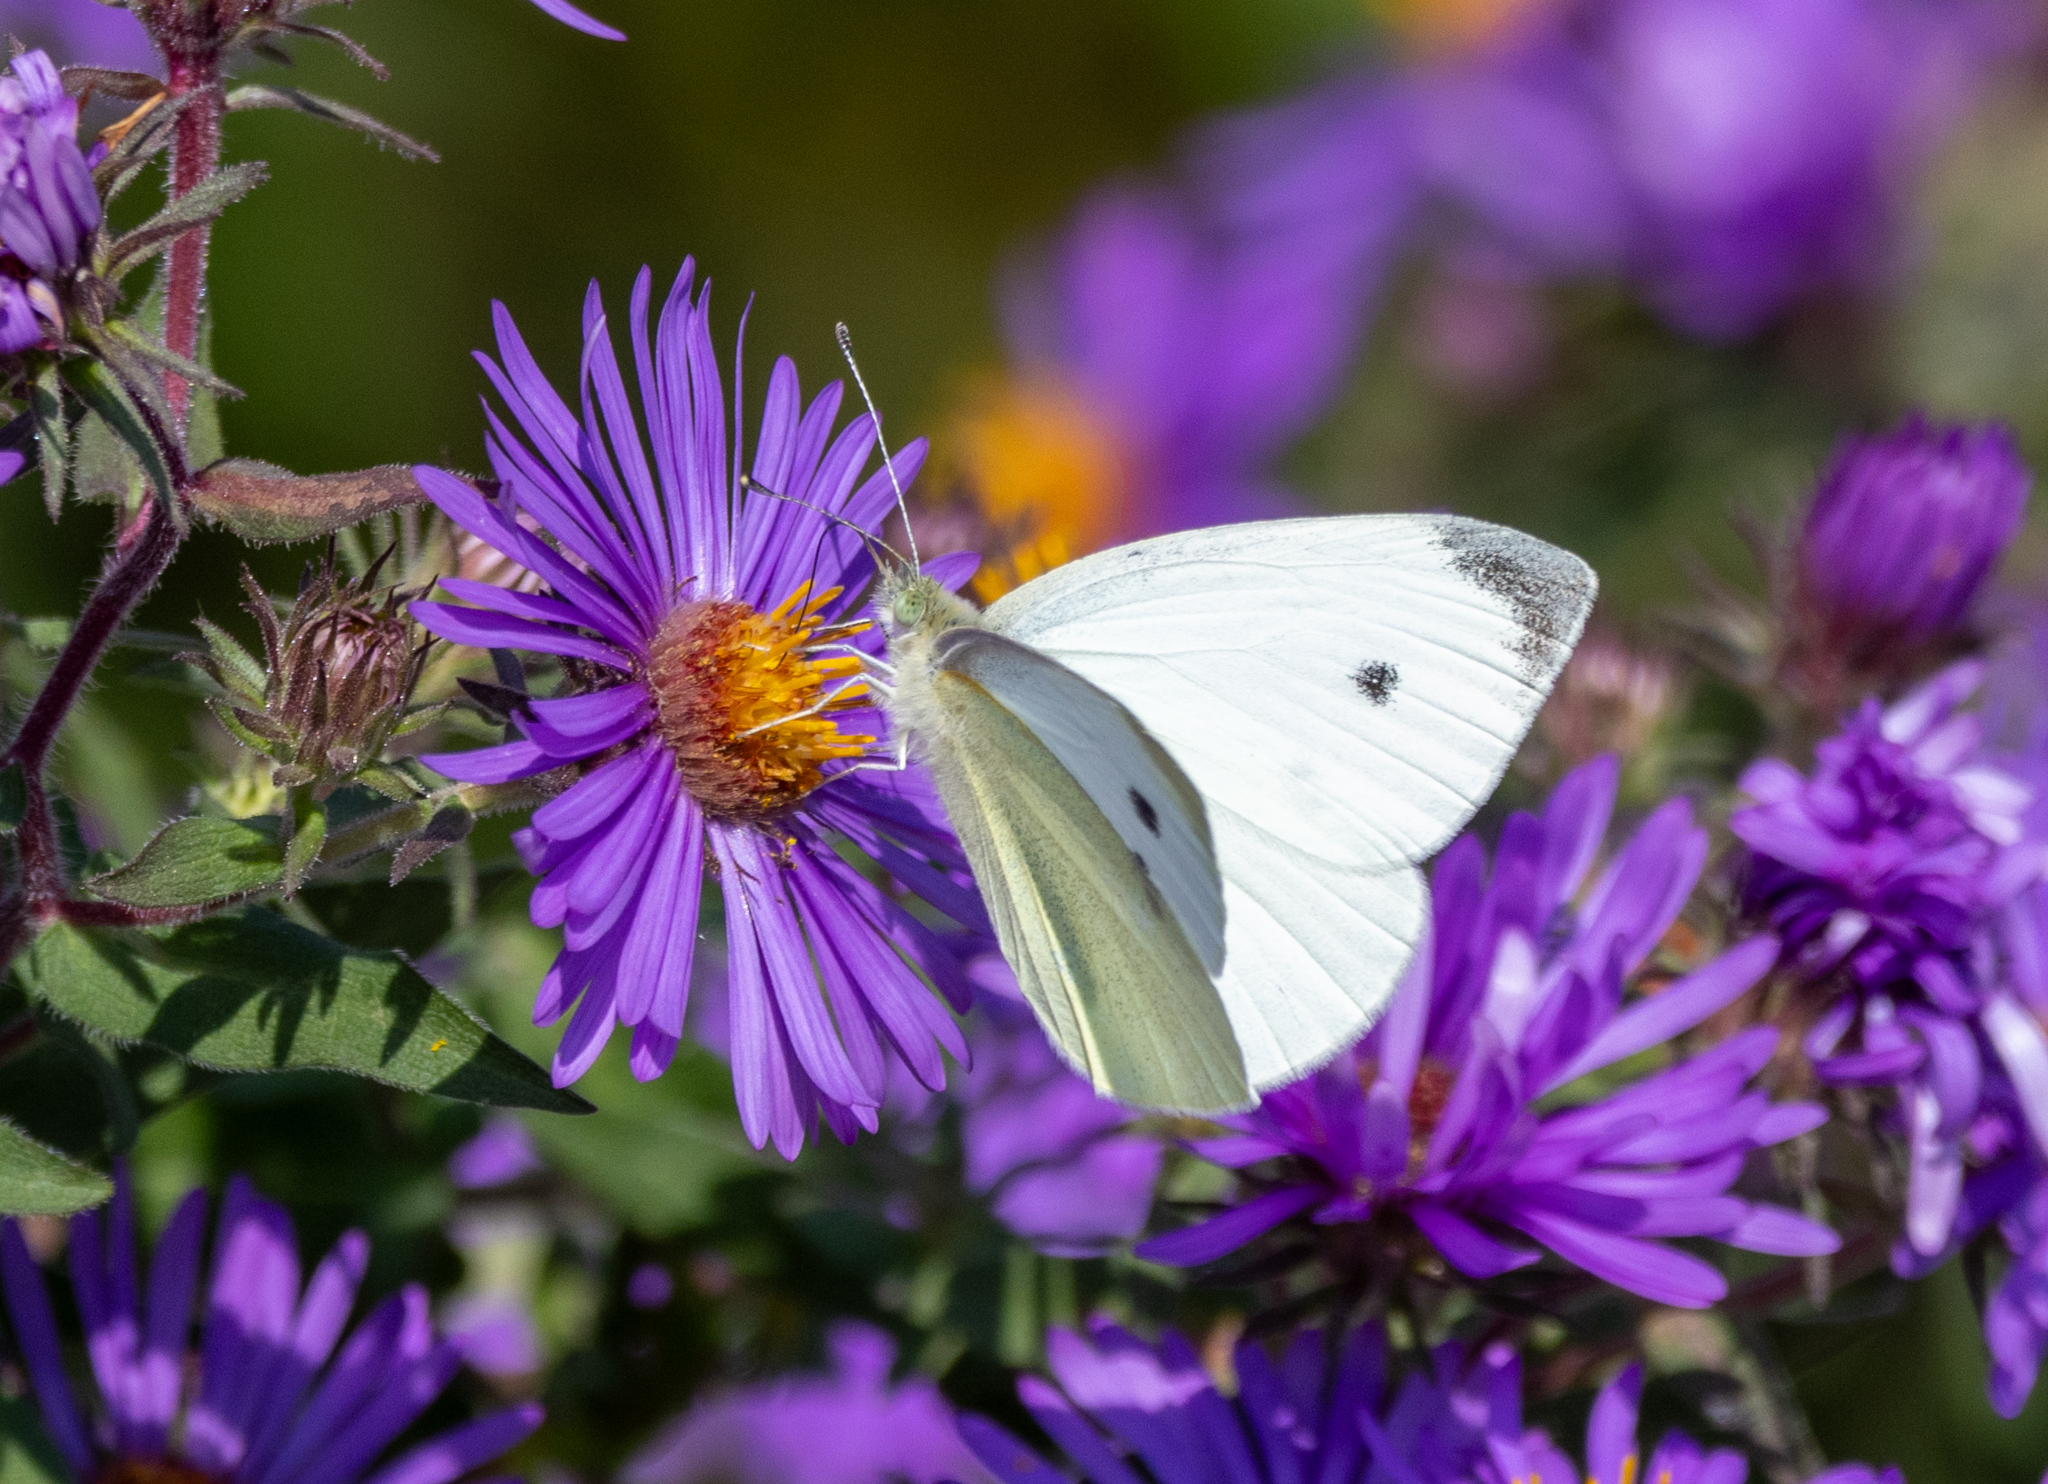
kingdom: Animalia
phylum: Arthropoda
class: Insecta
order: Lepidoptera
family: Pieridae
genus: Pieris
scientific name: Pieris rapae
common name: Small white
